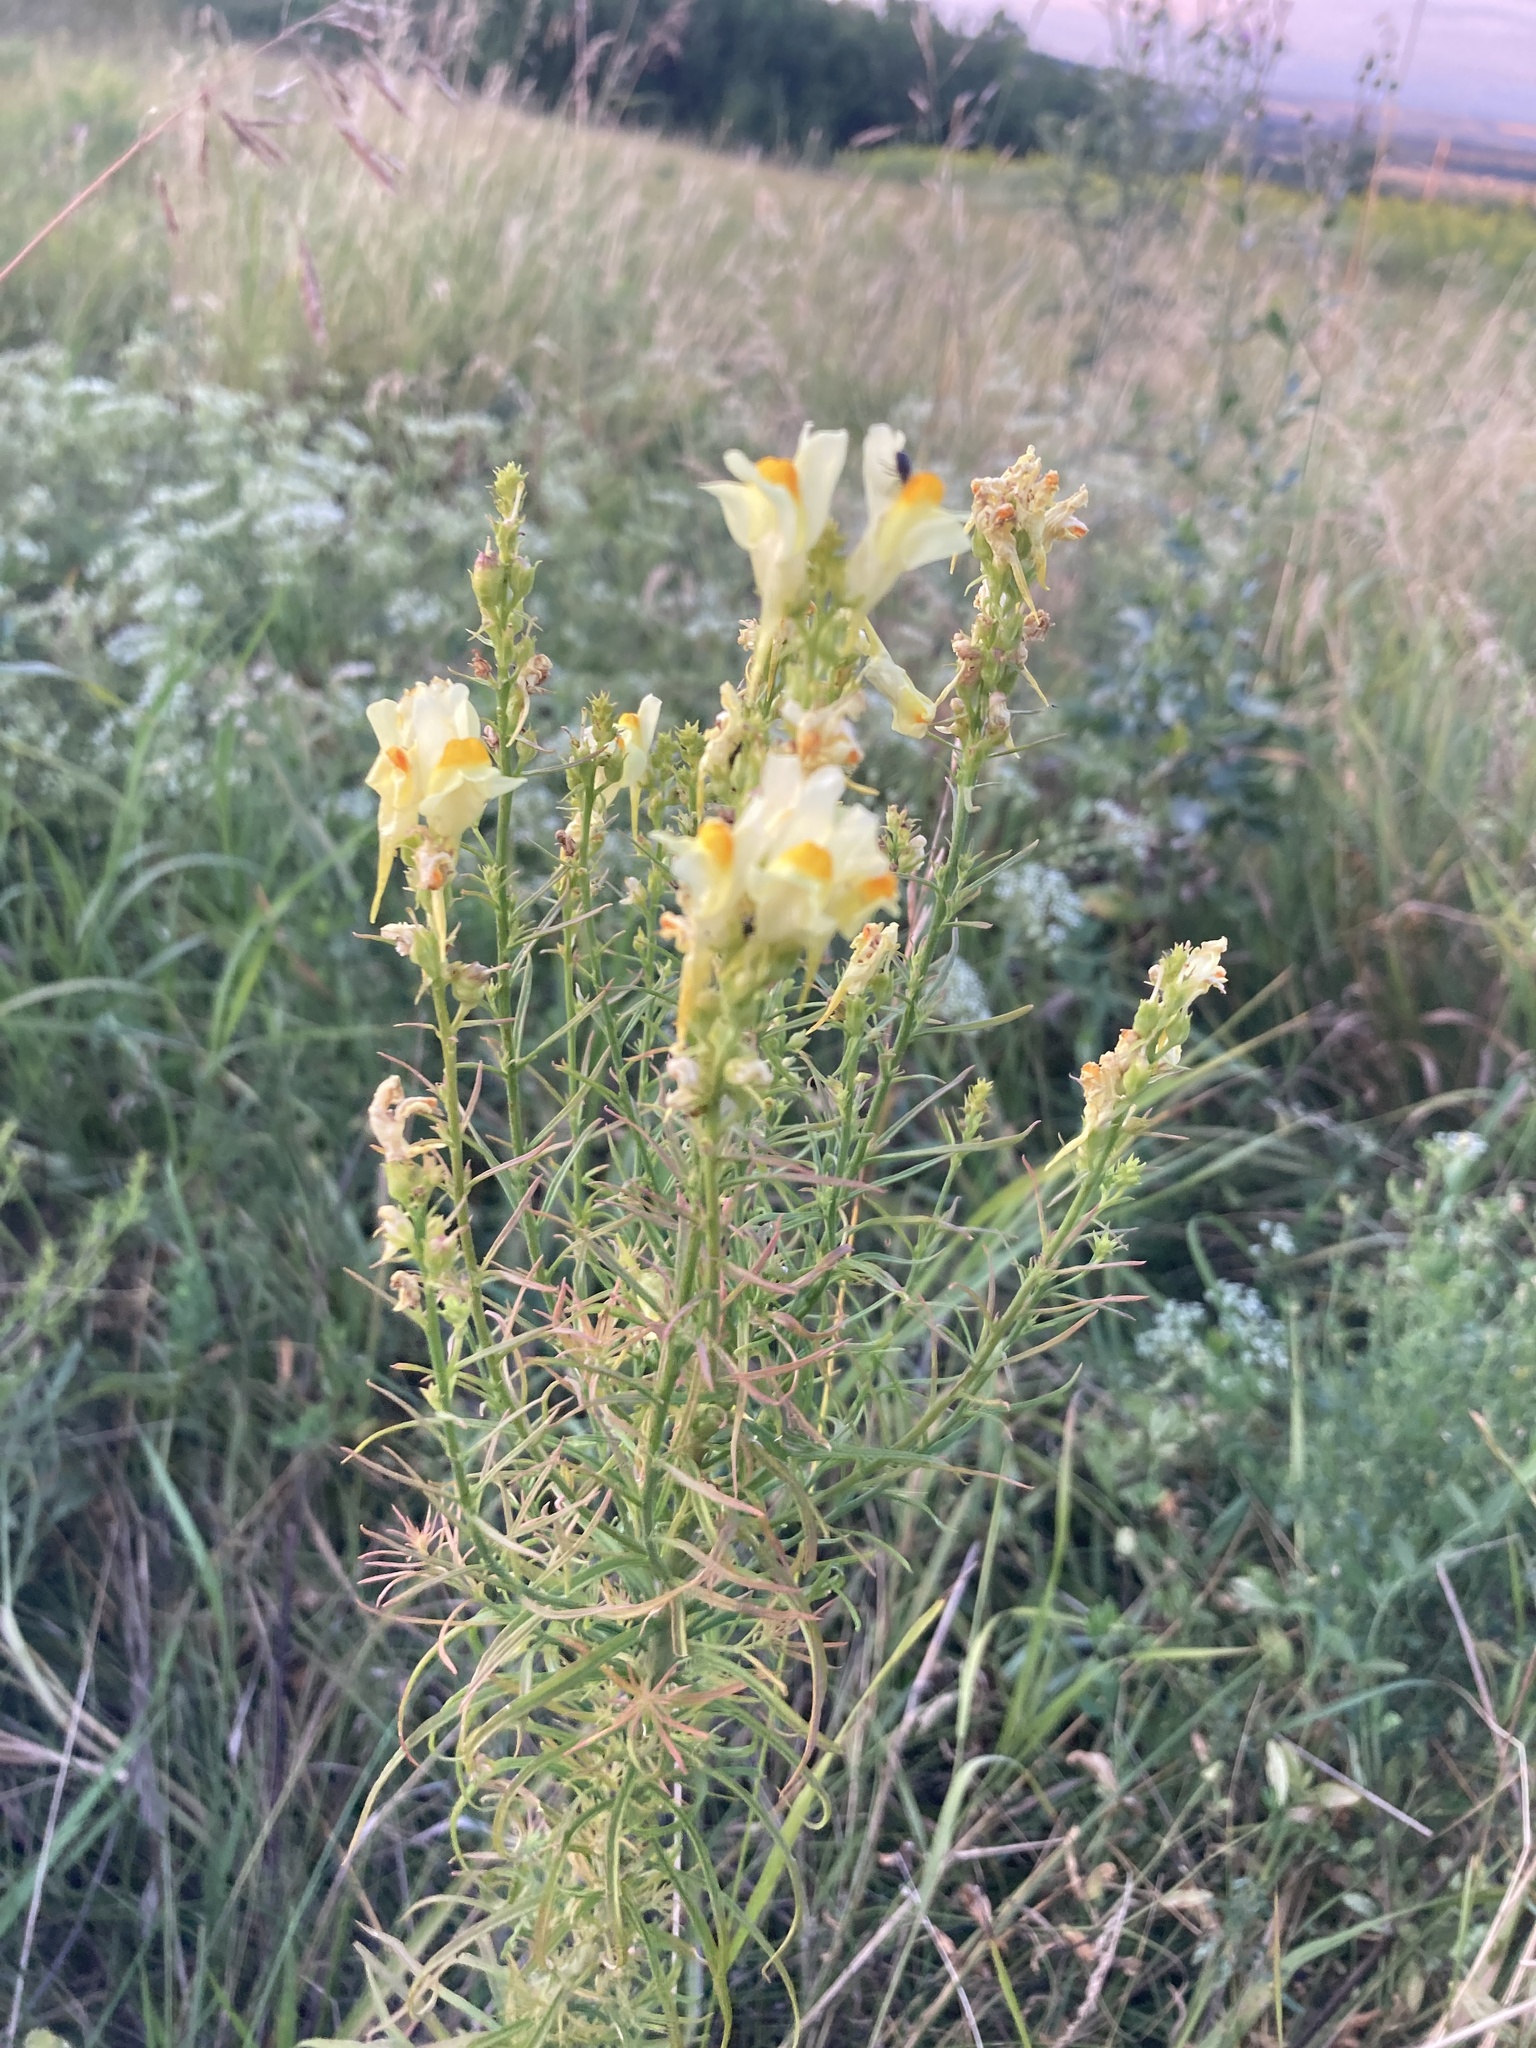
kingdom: Plantae
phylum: Tracheophyta
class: Magnoliopsida
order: Lamiales
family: Plantaginaceae
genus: Linaria
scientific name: Linaria vulgaris
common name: Butter and eggs
